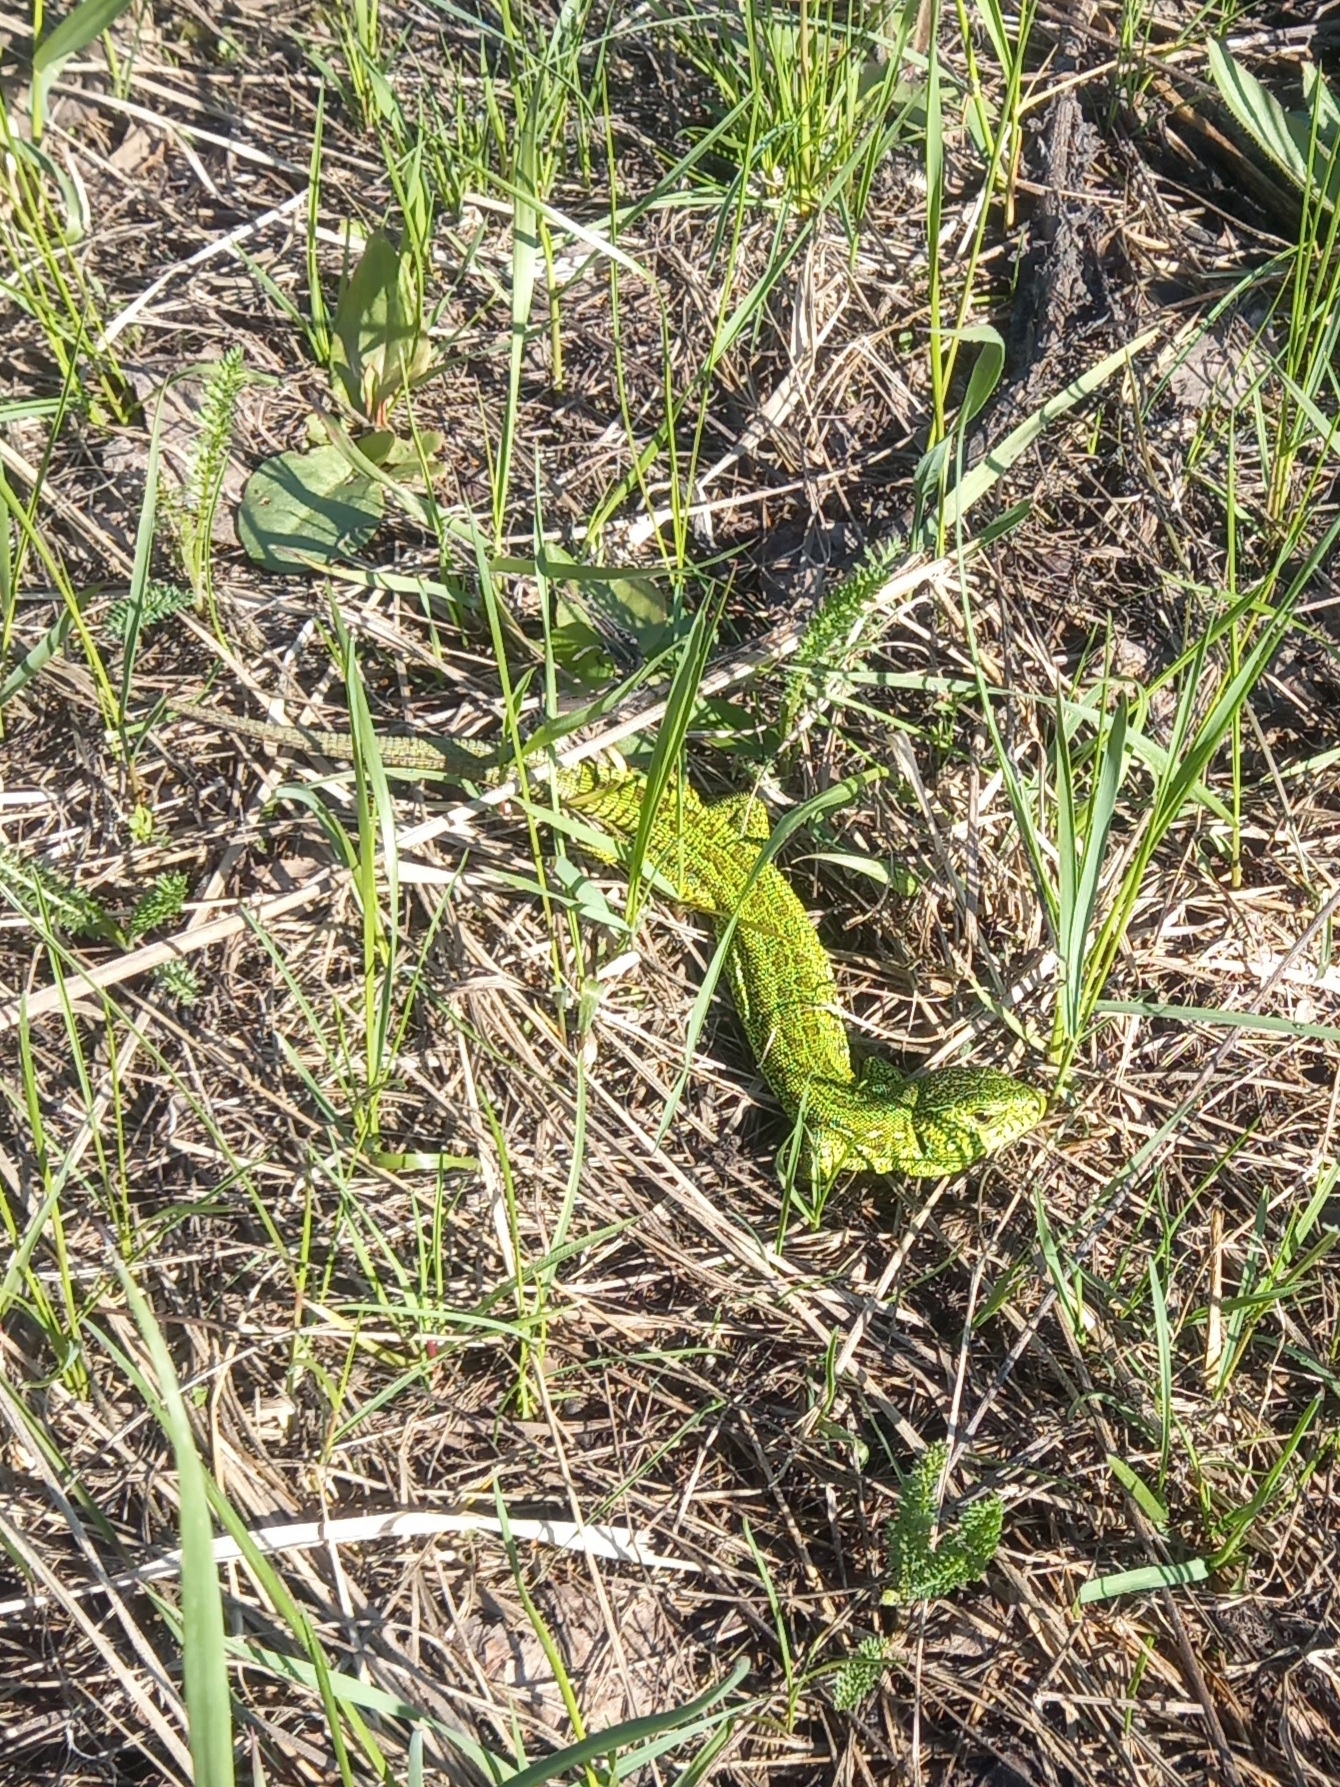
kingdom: Animalia
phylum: Chordata
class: Squamata
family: Lacertidae
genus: Lacerta
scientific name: Lacerta agilis
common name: Sand lizard
